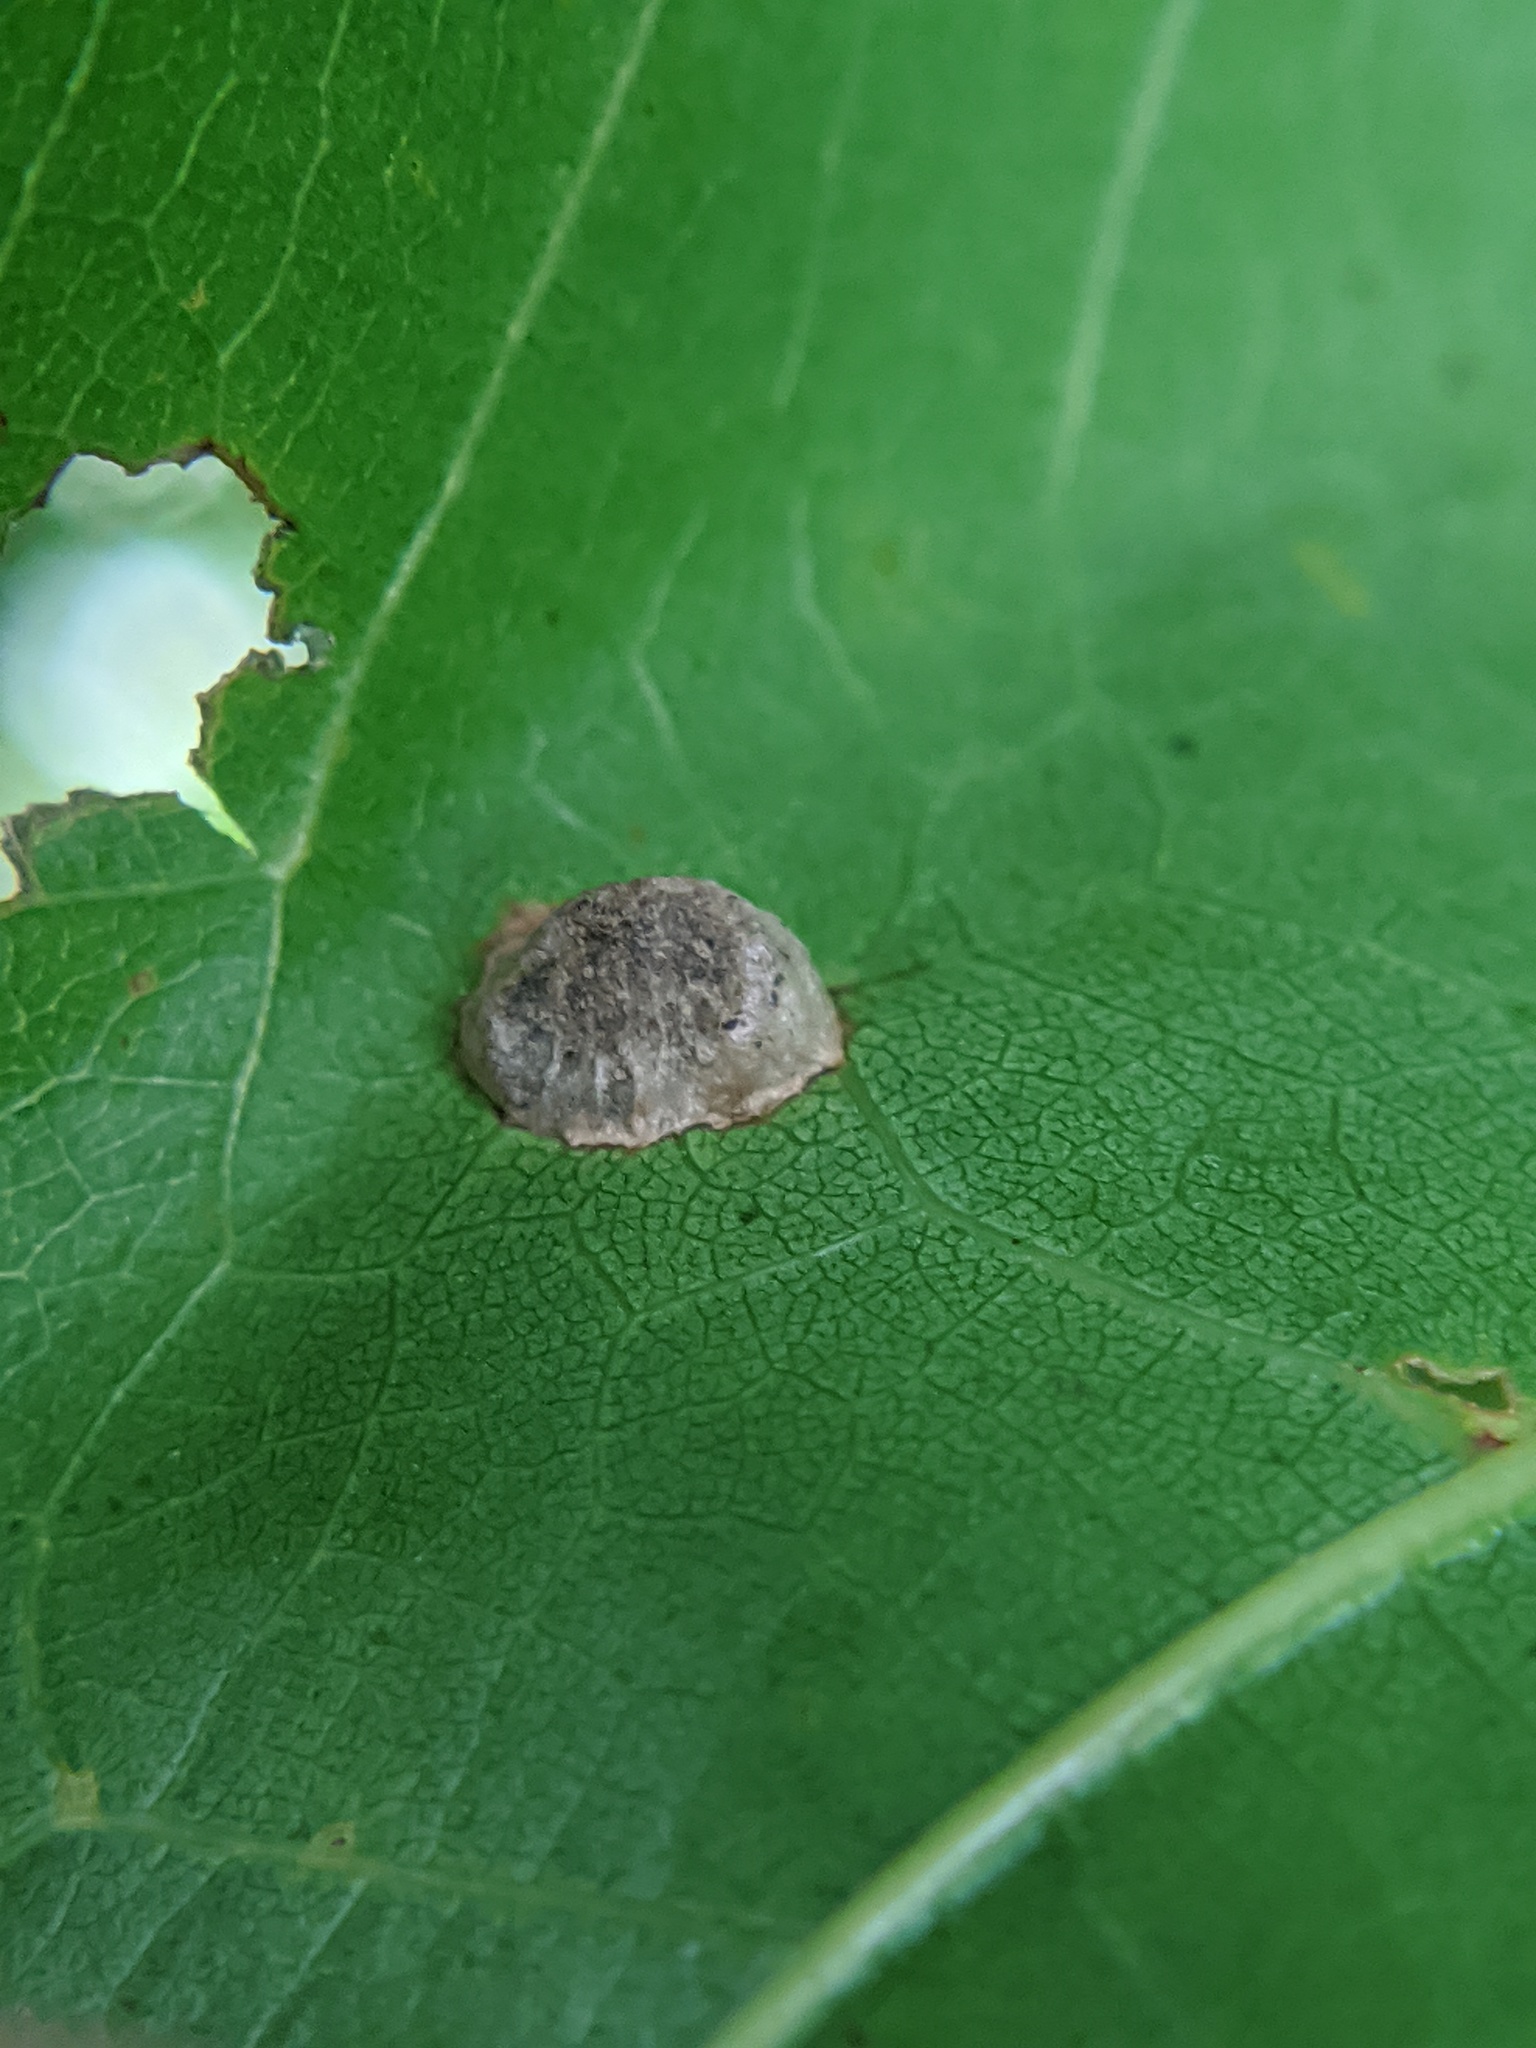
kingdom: Animalia
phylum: Arthropoda
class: Insecta
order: Hymenoptera
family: Cynipidae
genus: Dryocosmus
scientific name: Dryocosmus
